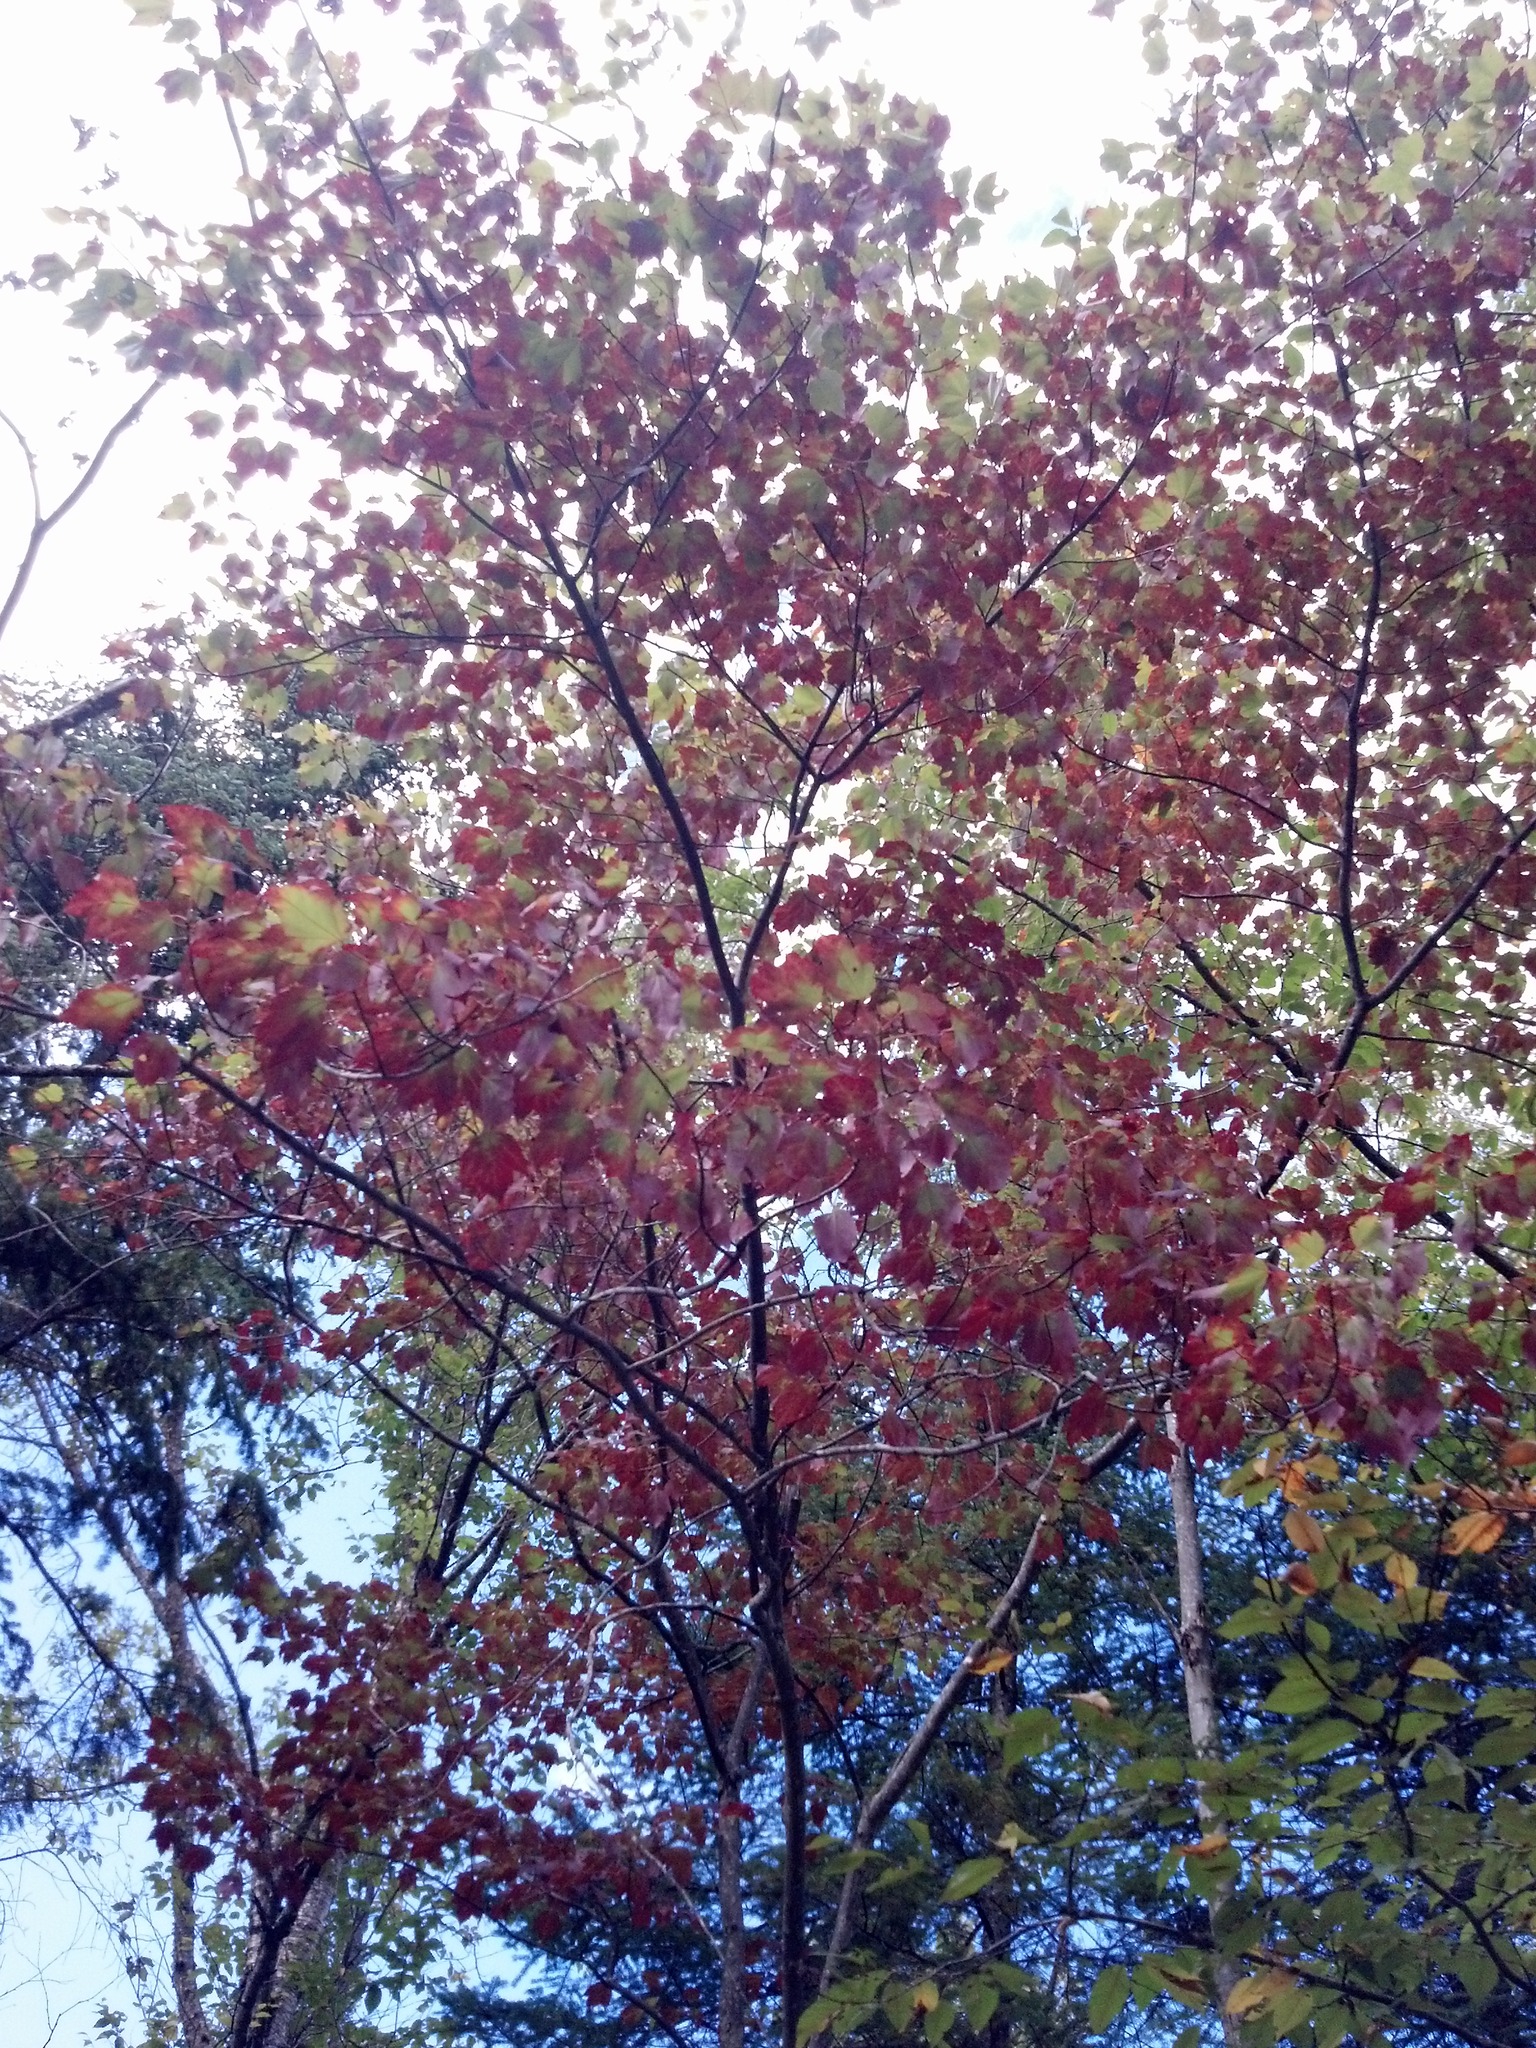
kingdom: Plantae
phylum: Tracheophyta
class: Magnoliopsida
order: Sapindales
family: Sapindaceae
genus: Acer
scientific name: Acer rubrum
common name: Red maple
